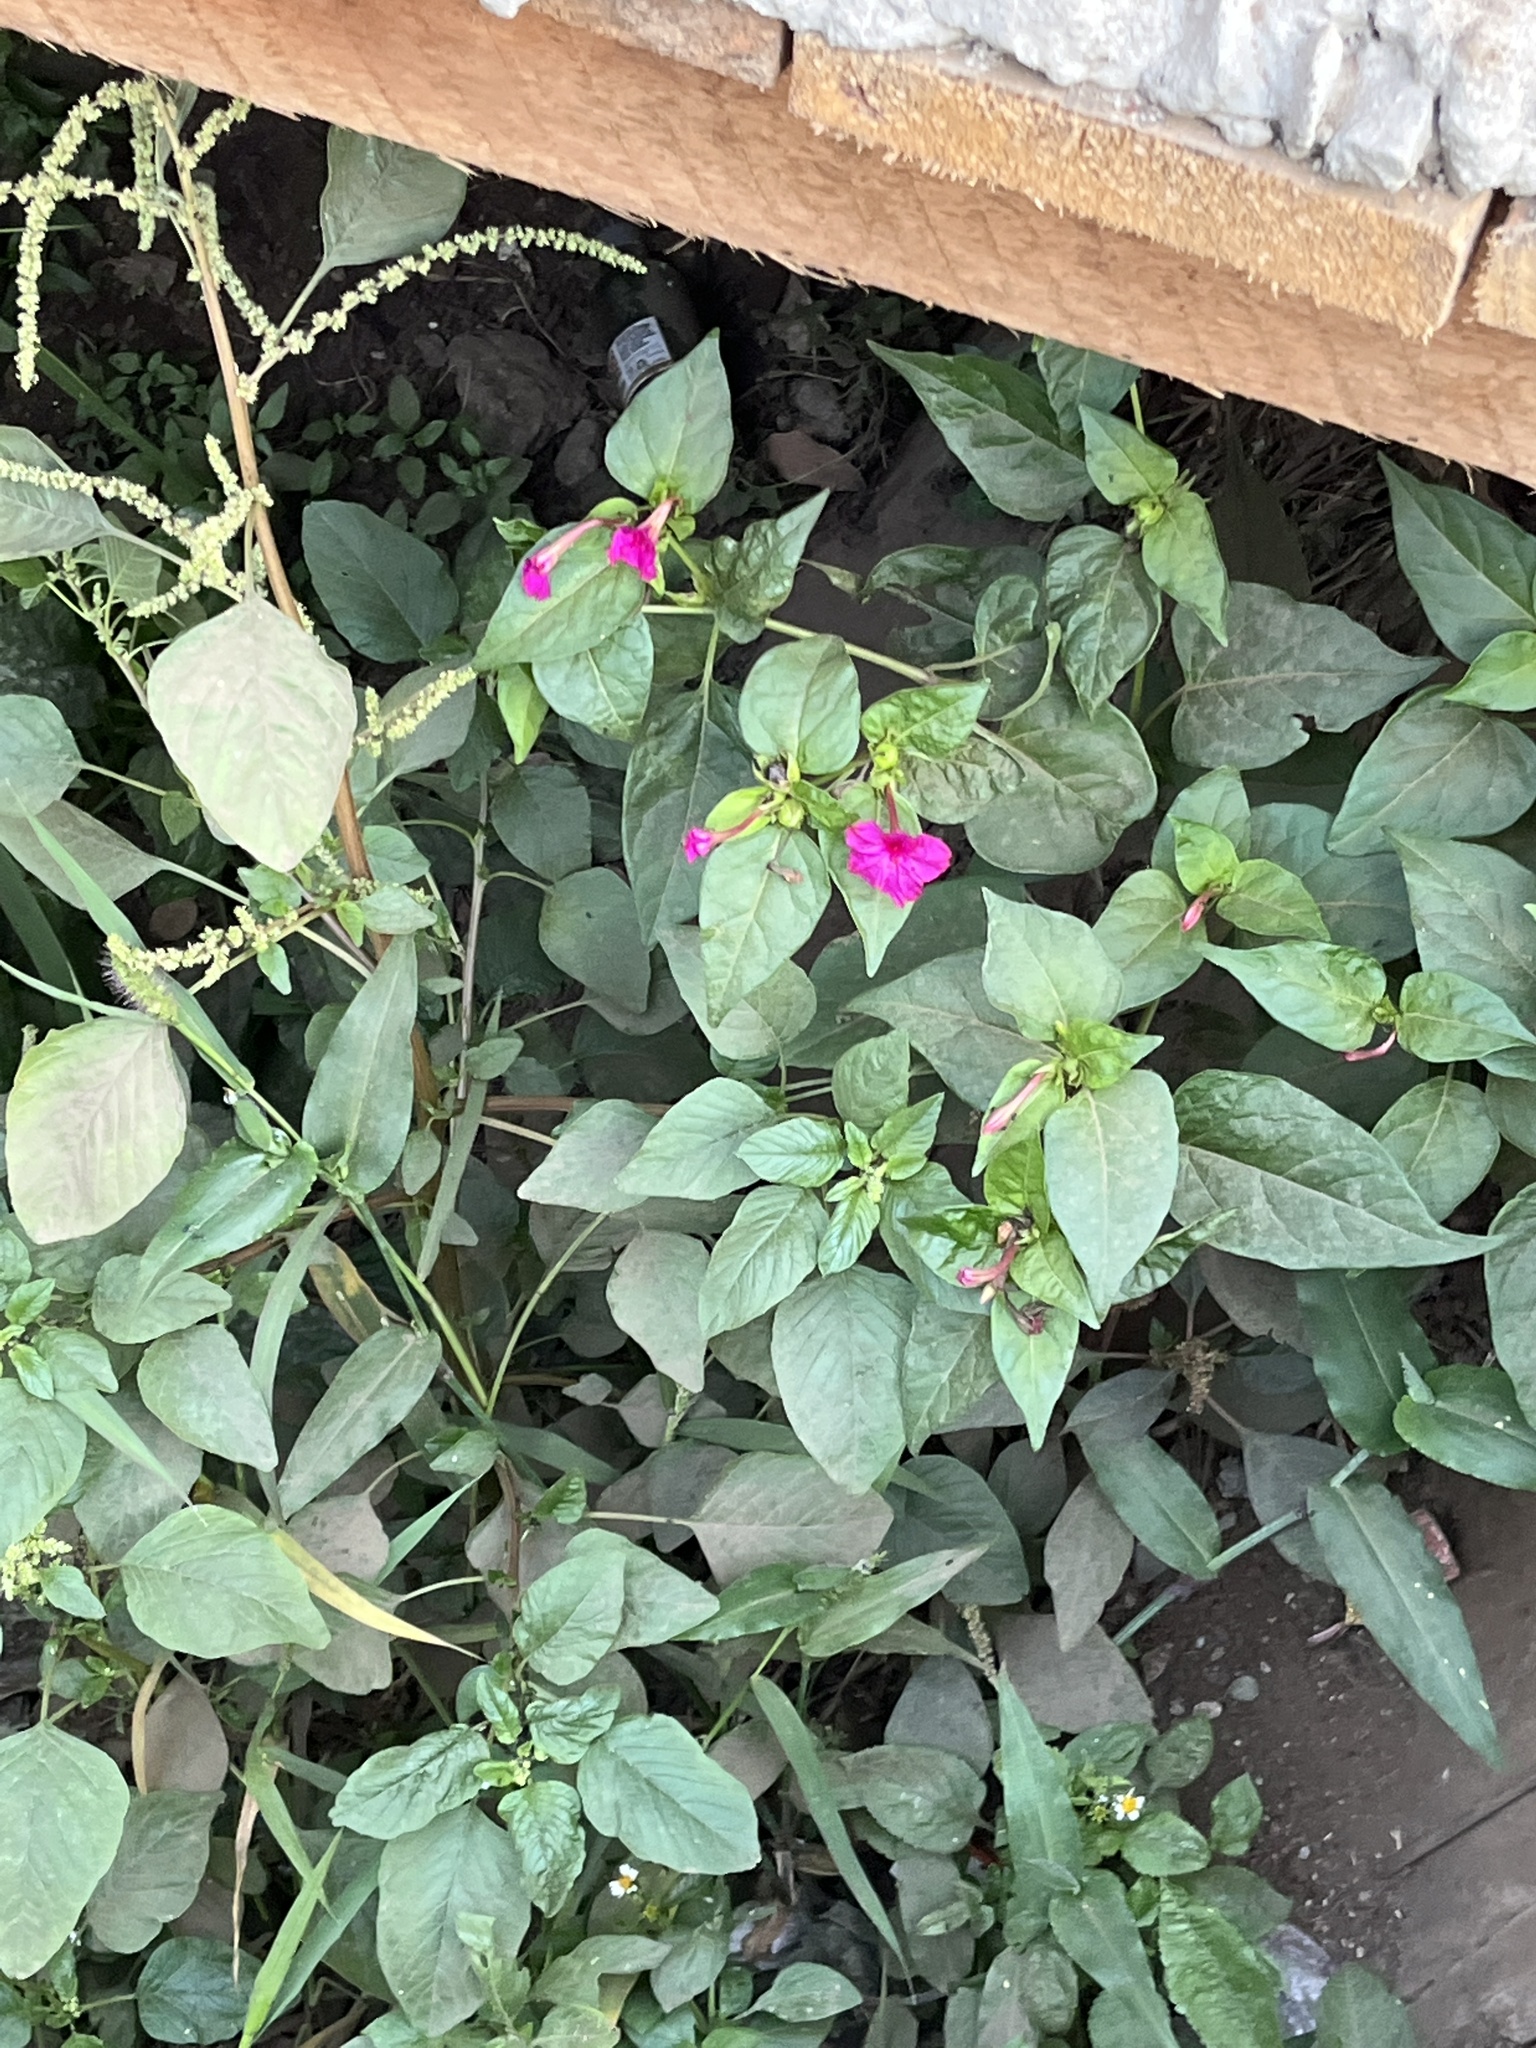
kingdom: Plantae
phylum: Tracheophyta
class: Magnoliopsida
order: Caryophyllales
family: Nyctaginaceae
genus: Mirabilis
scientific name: Mirabilis jalapa
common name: Marvel-of-peru
